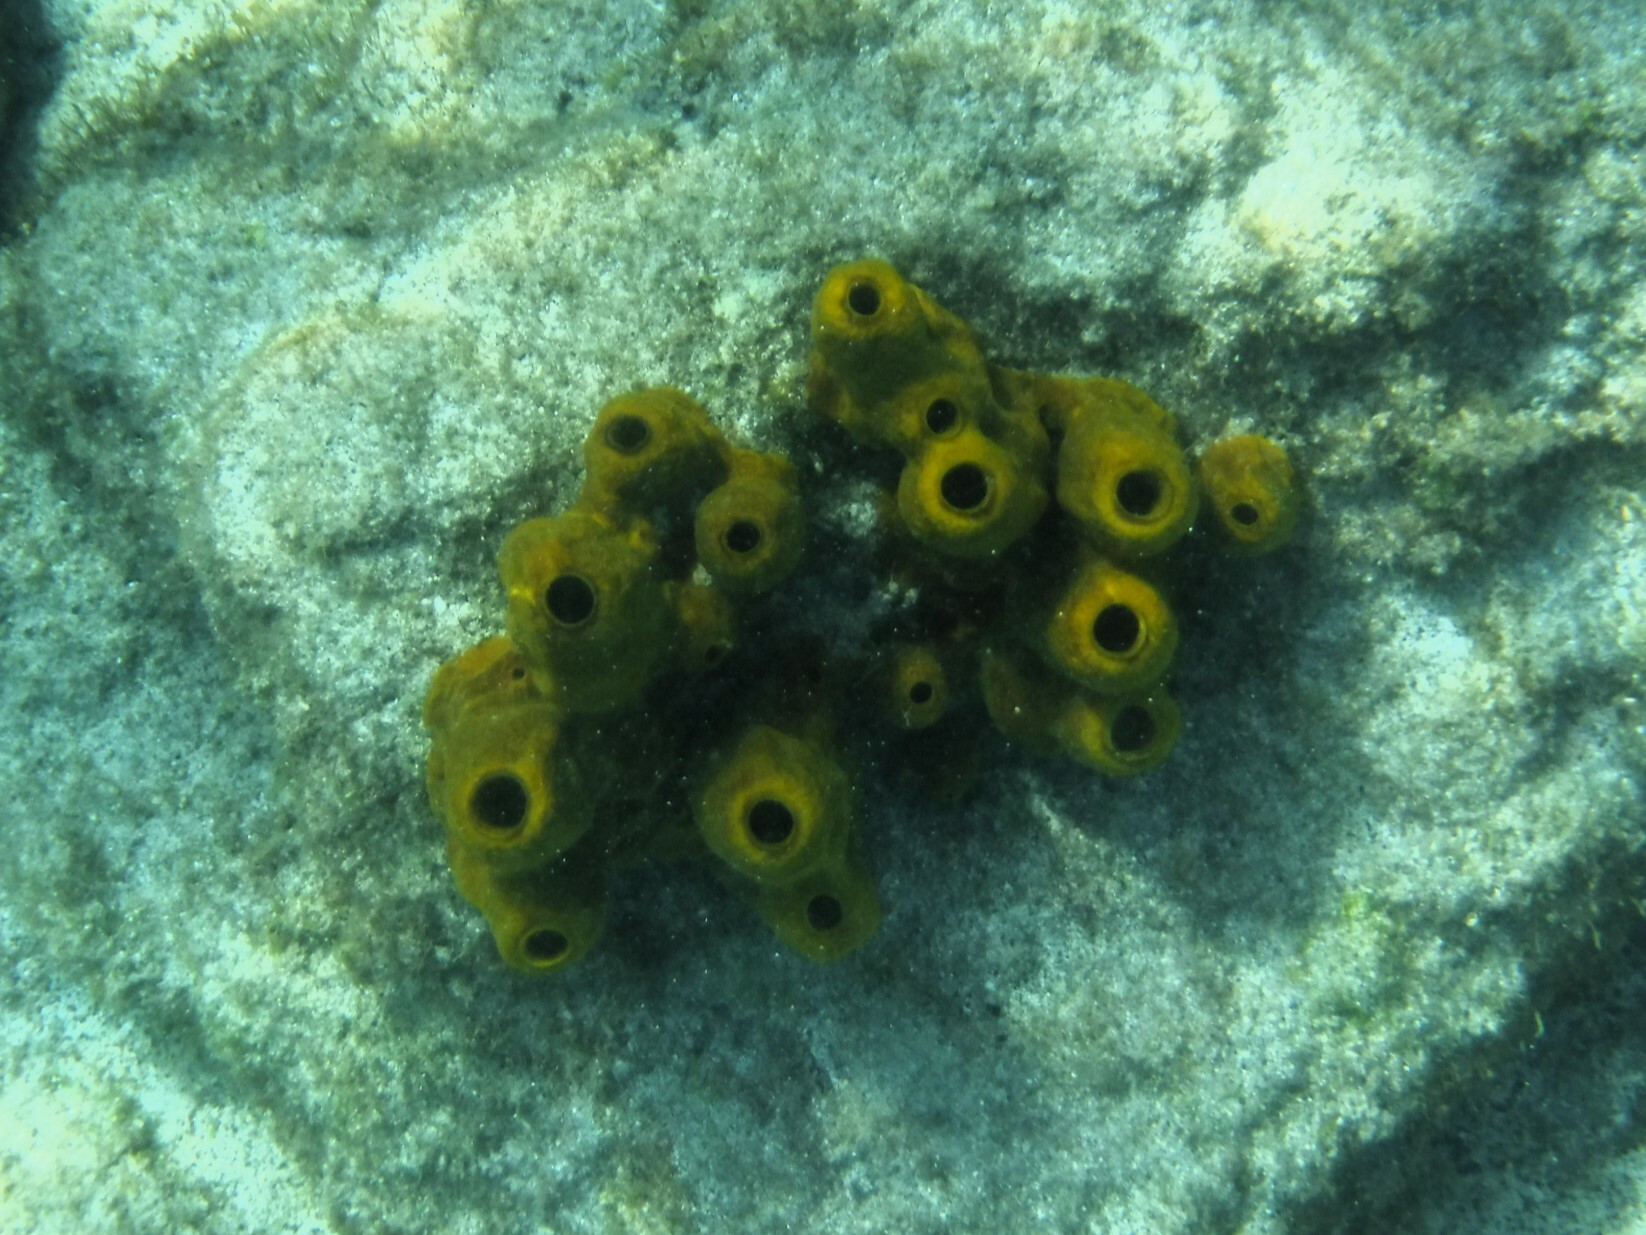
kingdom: Animalia
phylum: Porifera
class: Demospongiae
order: Verongiida
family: Aplysinidae
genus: Aplysina
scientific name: Aplysina fistularis
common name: Candle sponge
